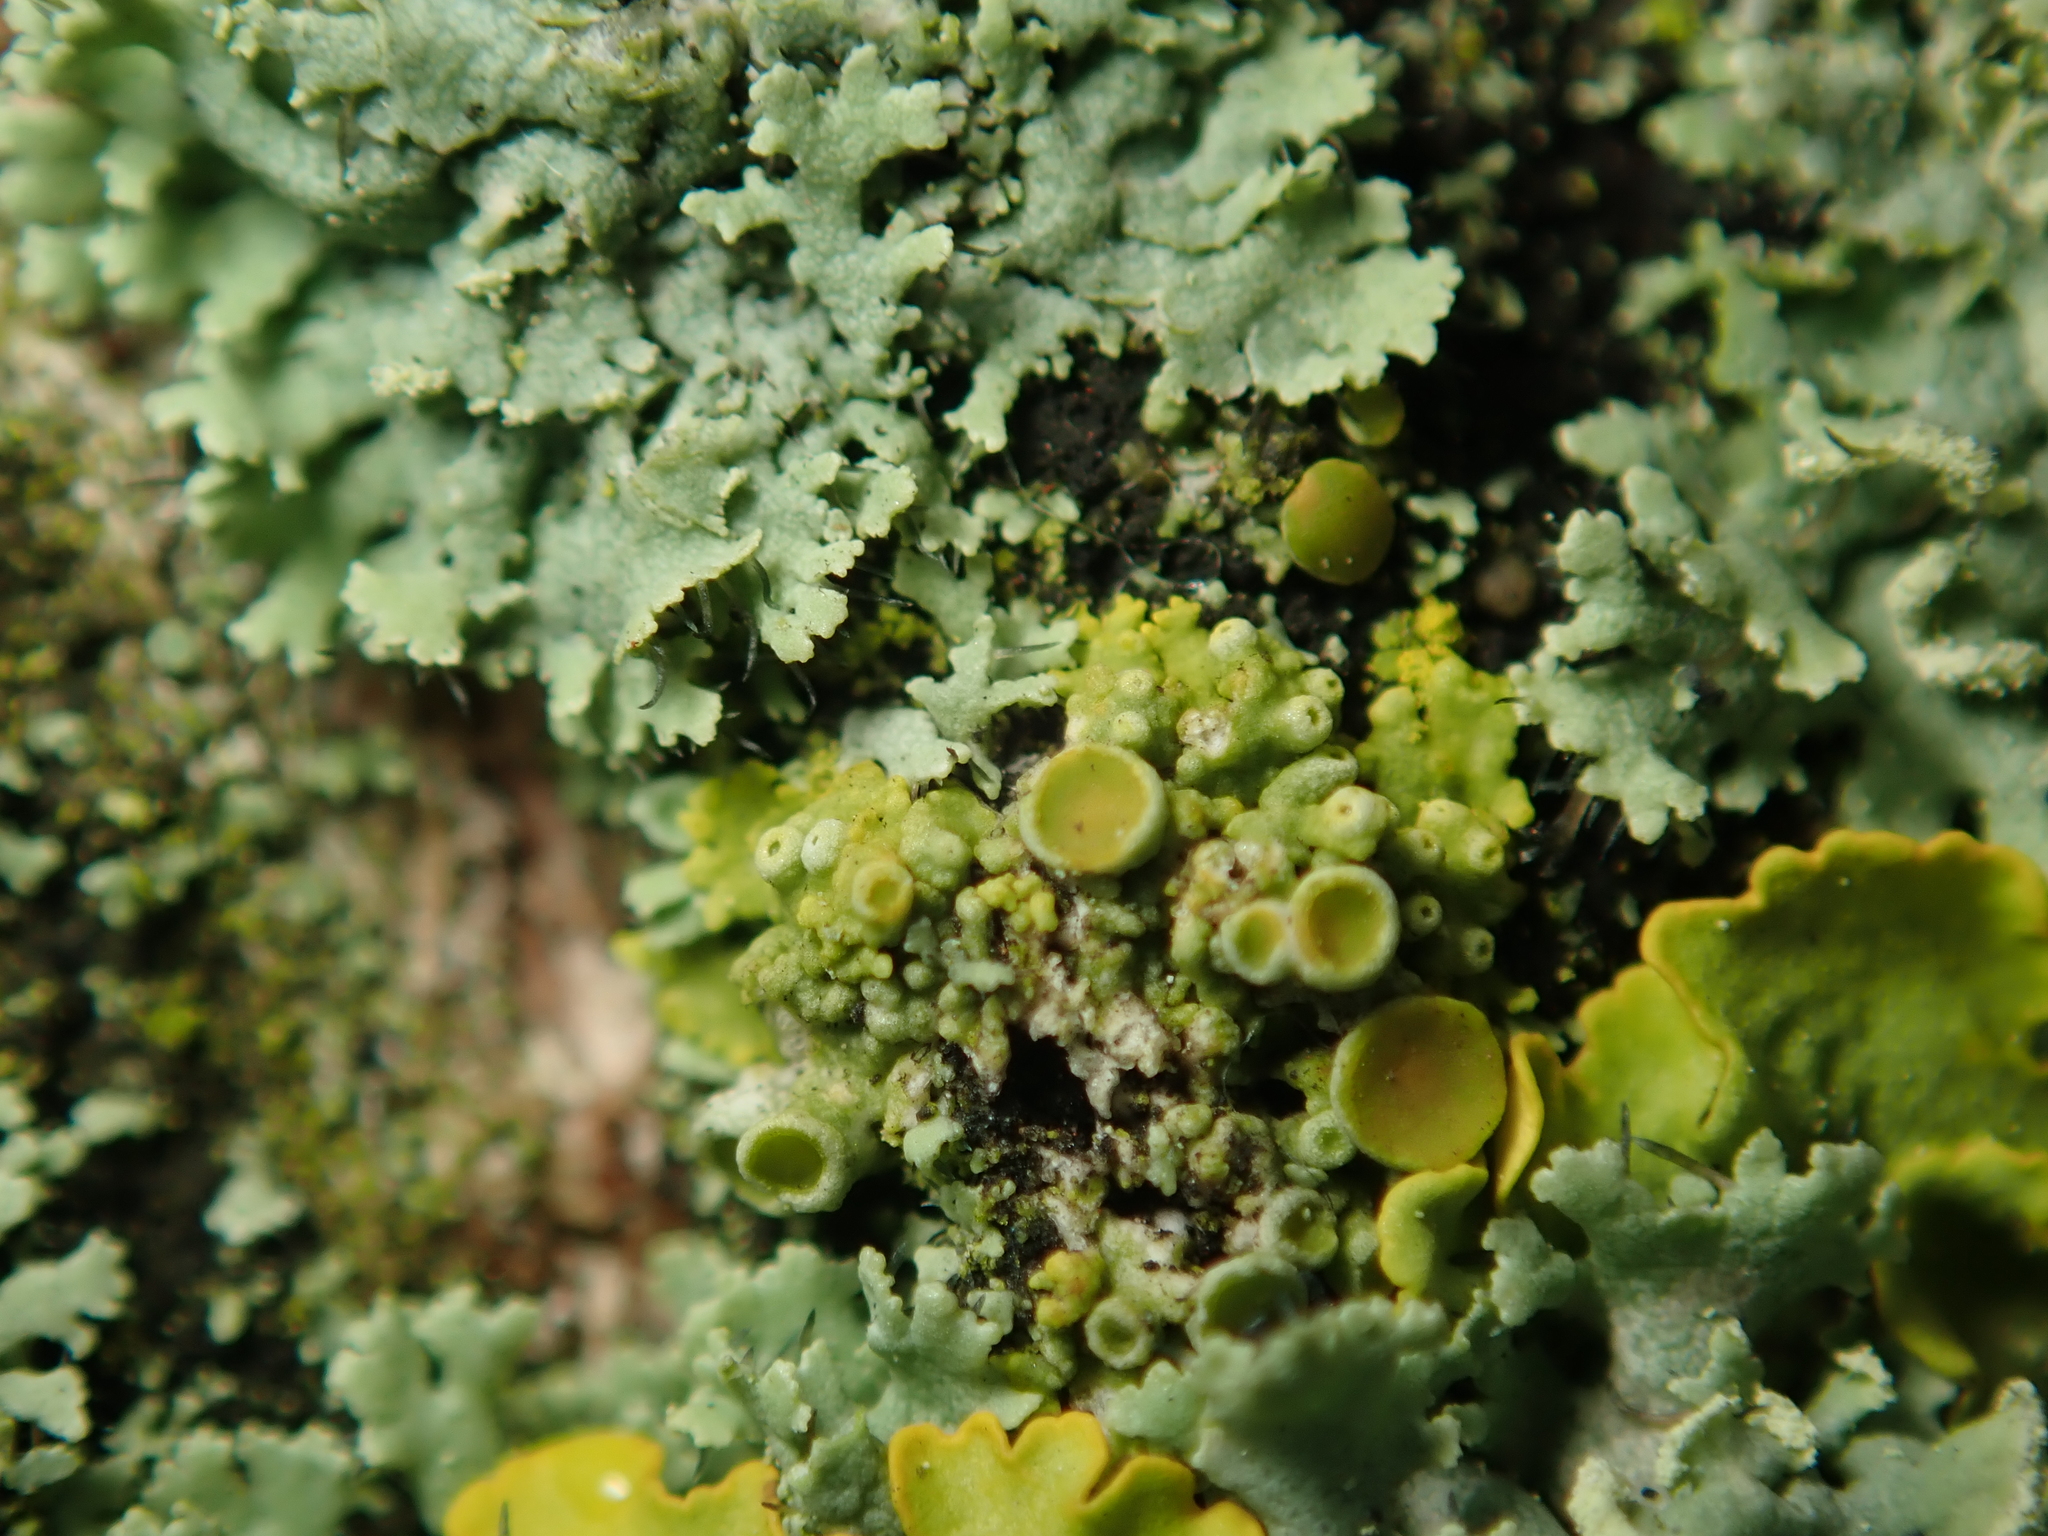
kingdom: Fungi
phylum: Ascomycota
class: Lecanoromycetes
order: Teloschistales
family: Teloschistaceae
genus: Polycauliona
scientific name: Polycauliona polycarpa
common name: Pin-cushion sunburst lichen
